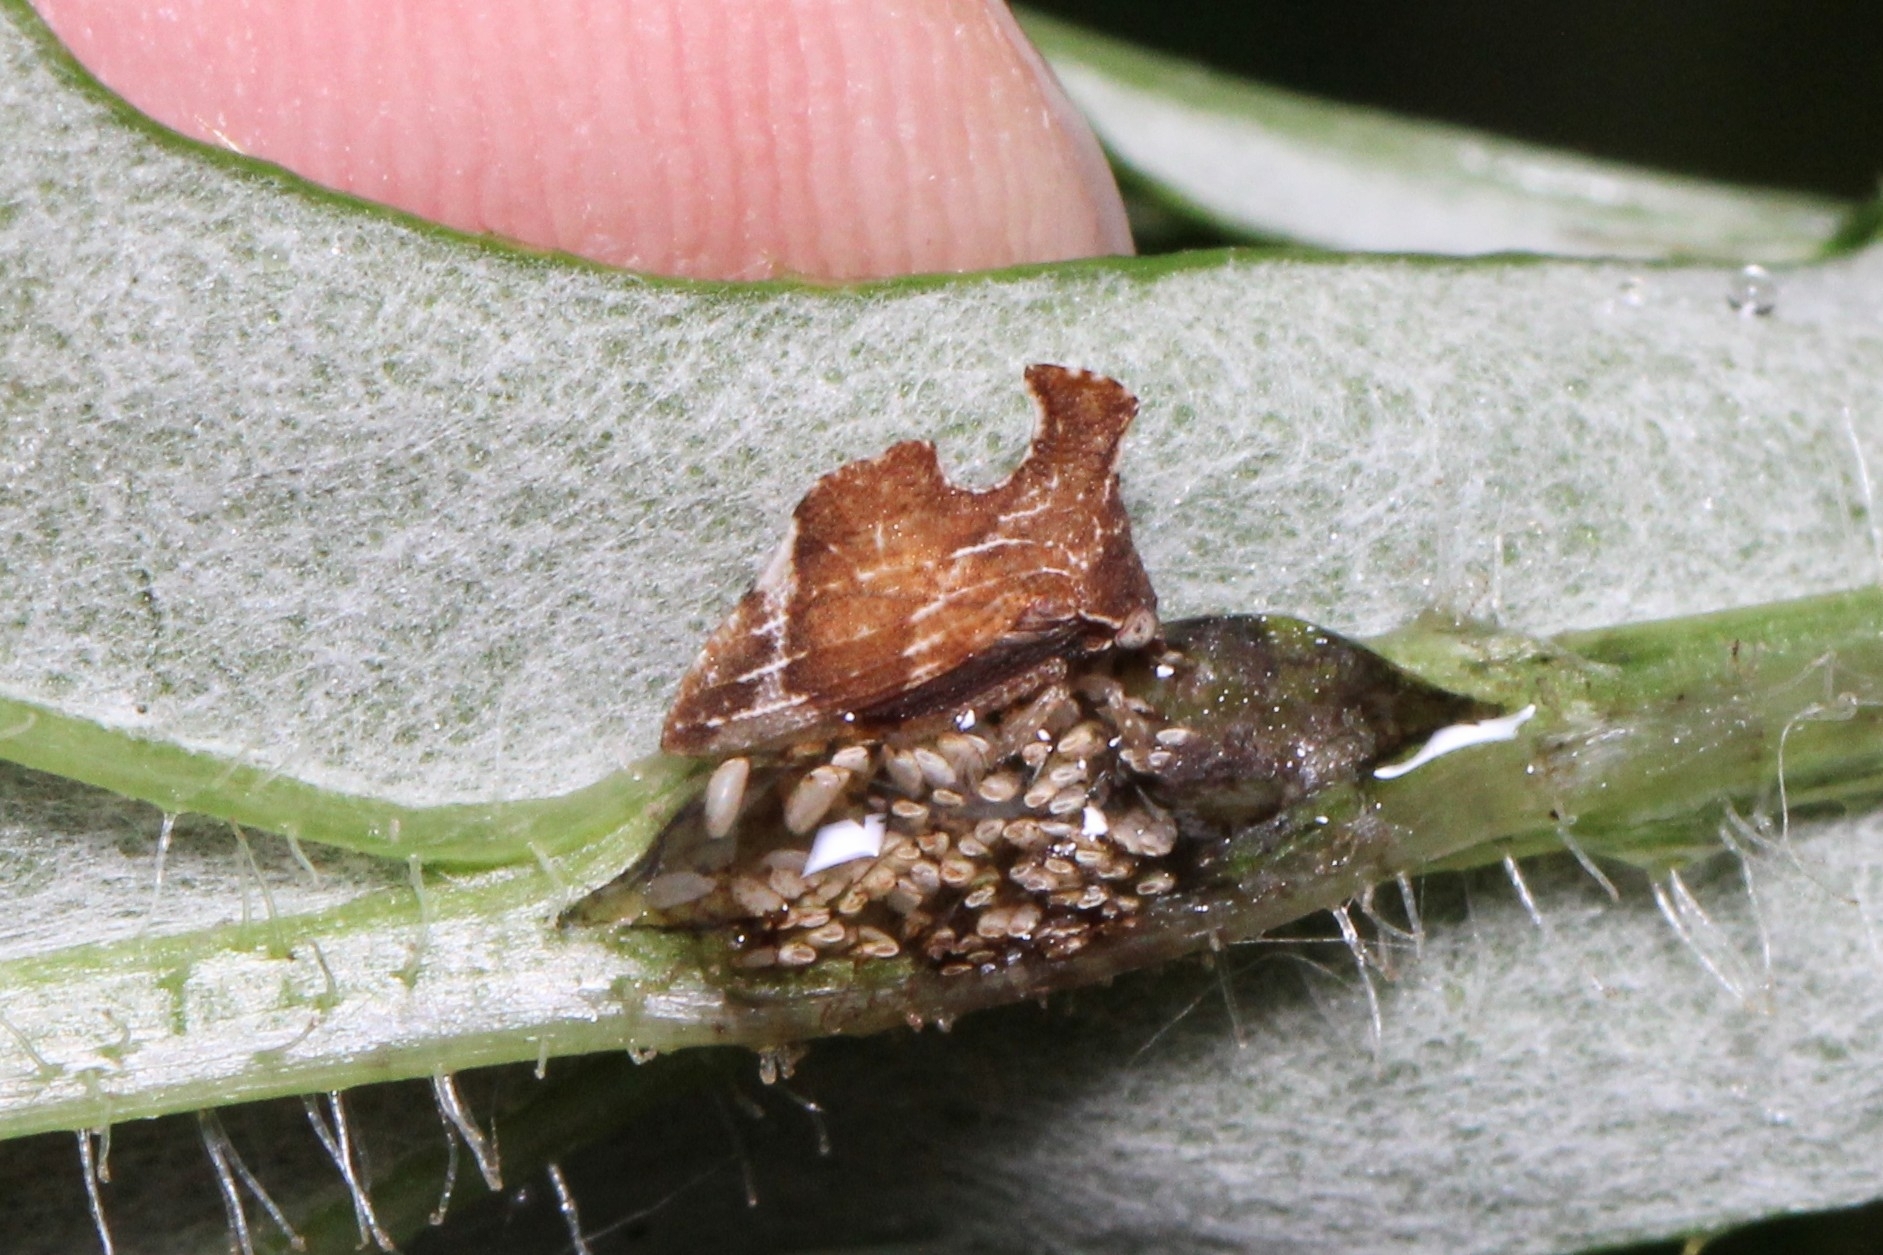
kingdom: Animalia
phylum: Arthropoda
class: Insecta
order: Hemiptera
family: Membracidae
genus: Entylia
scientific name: Entylia carinata
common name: Keeled treehopper
